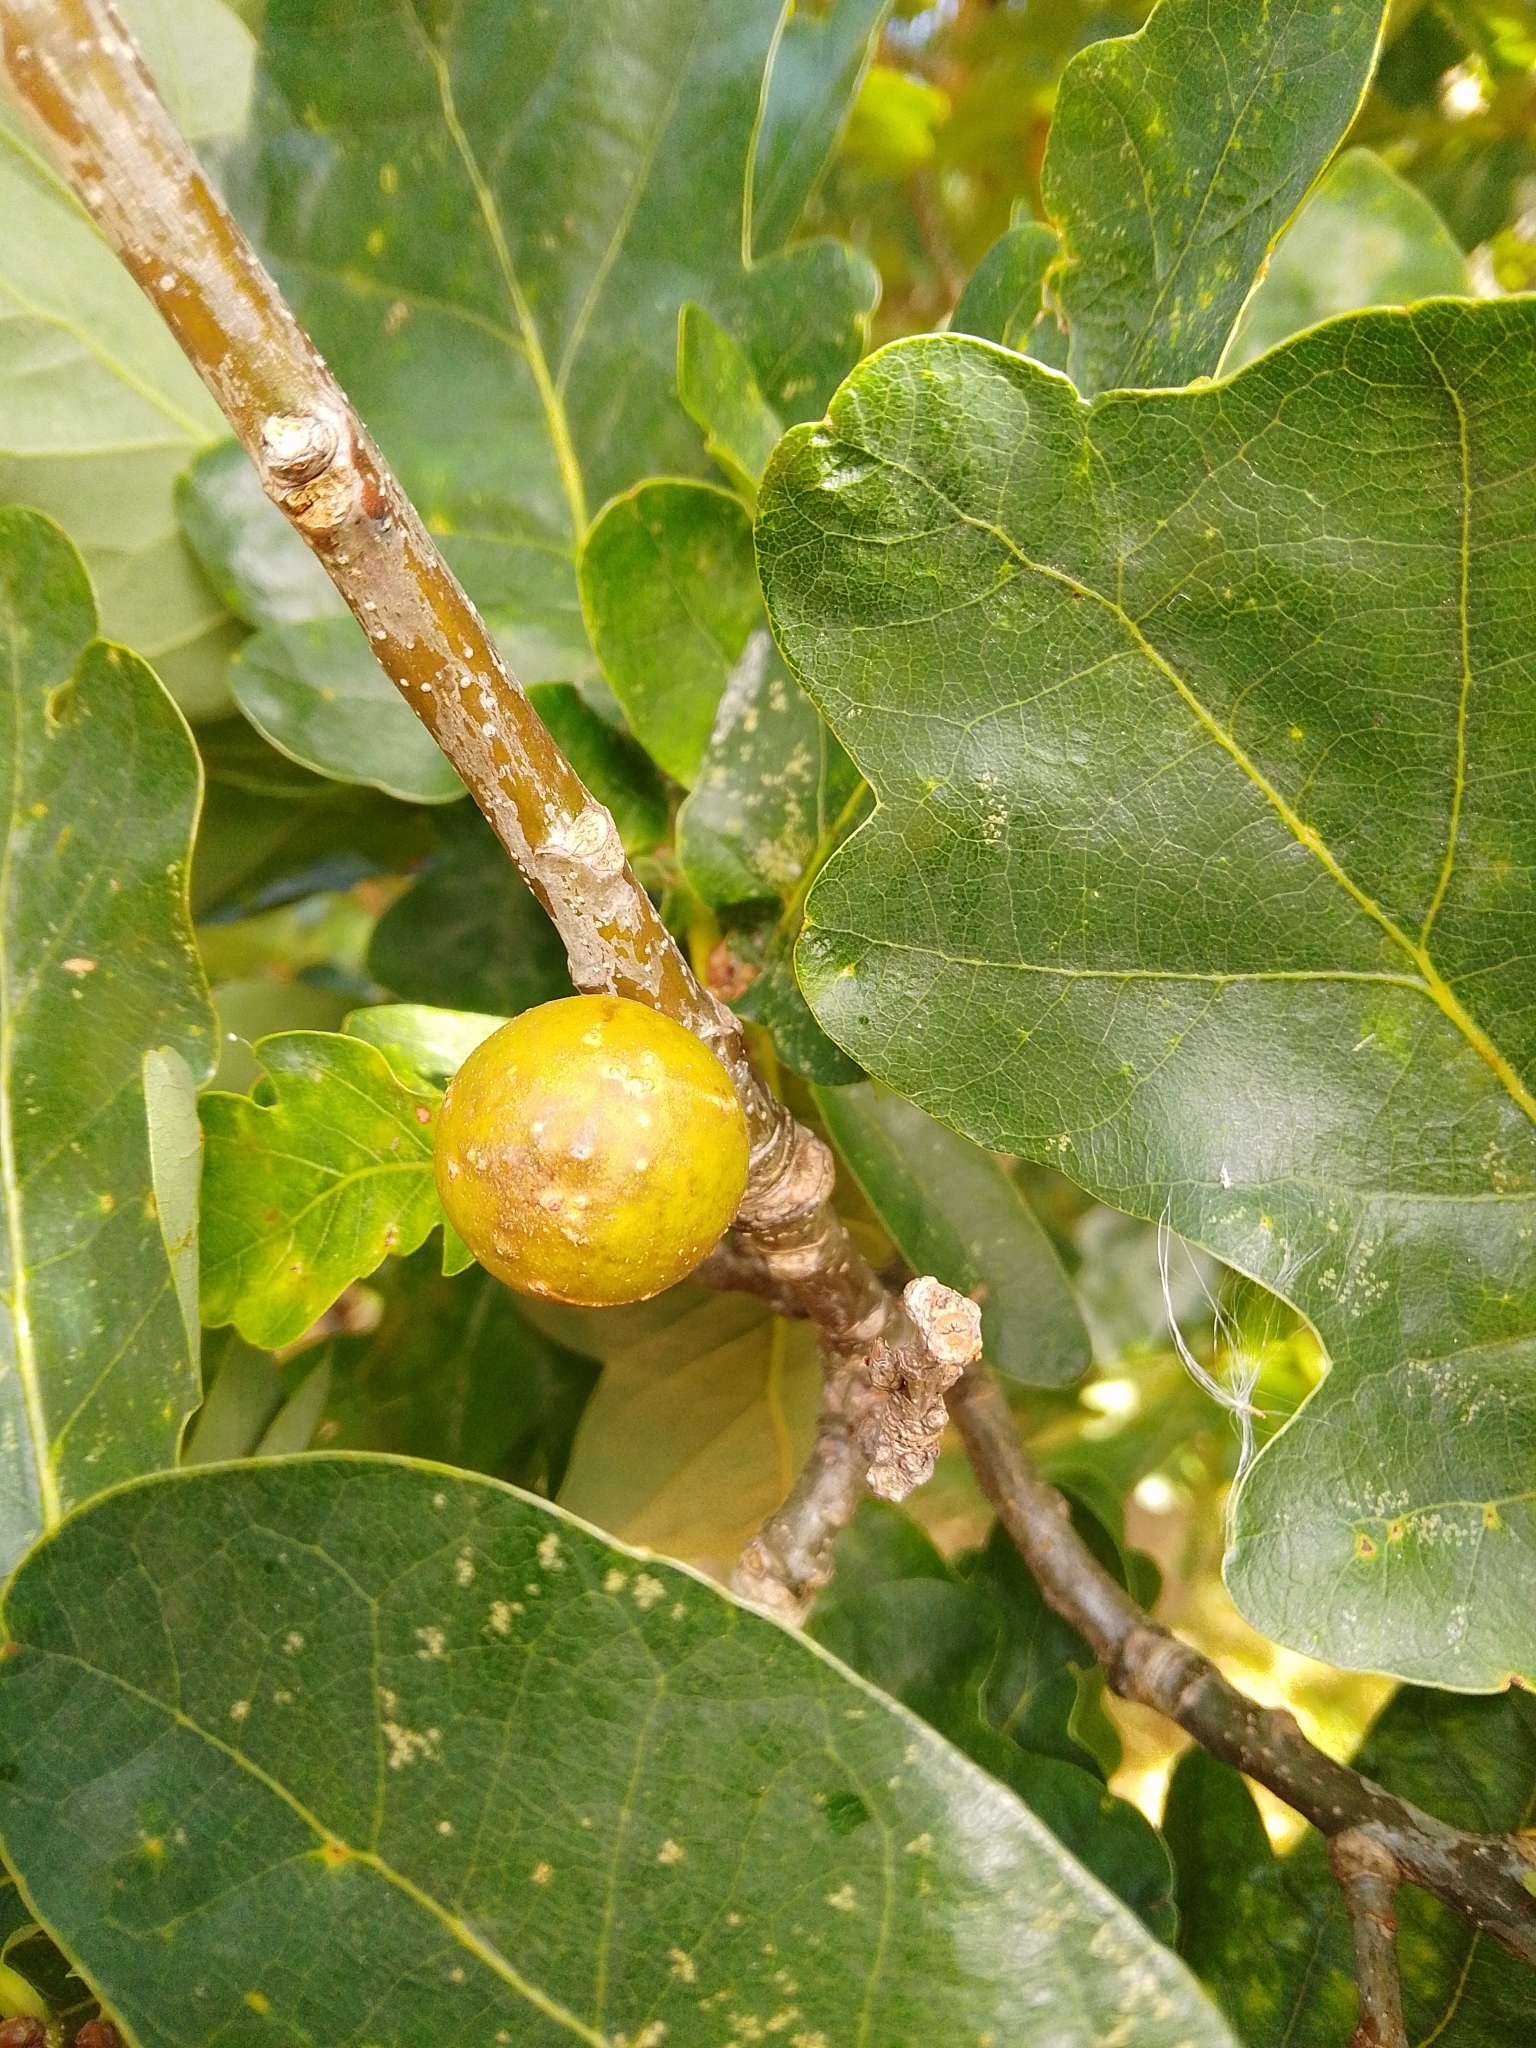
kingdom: Animalia
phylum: Arthropoda
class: Insecta
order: Hymenoptera
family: Cynipidae
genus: Andricus
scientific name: Andricus kollari
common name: Marble gall
